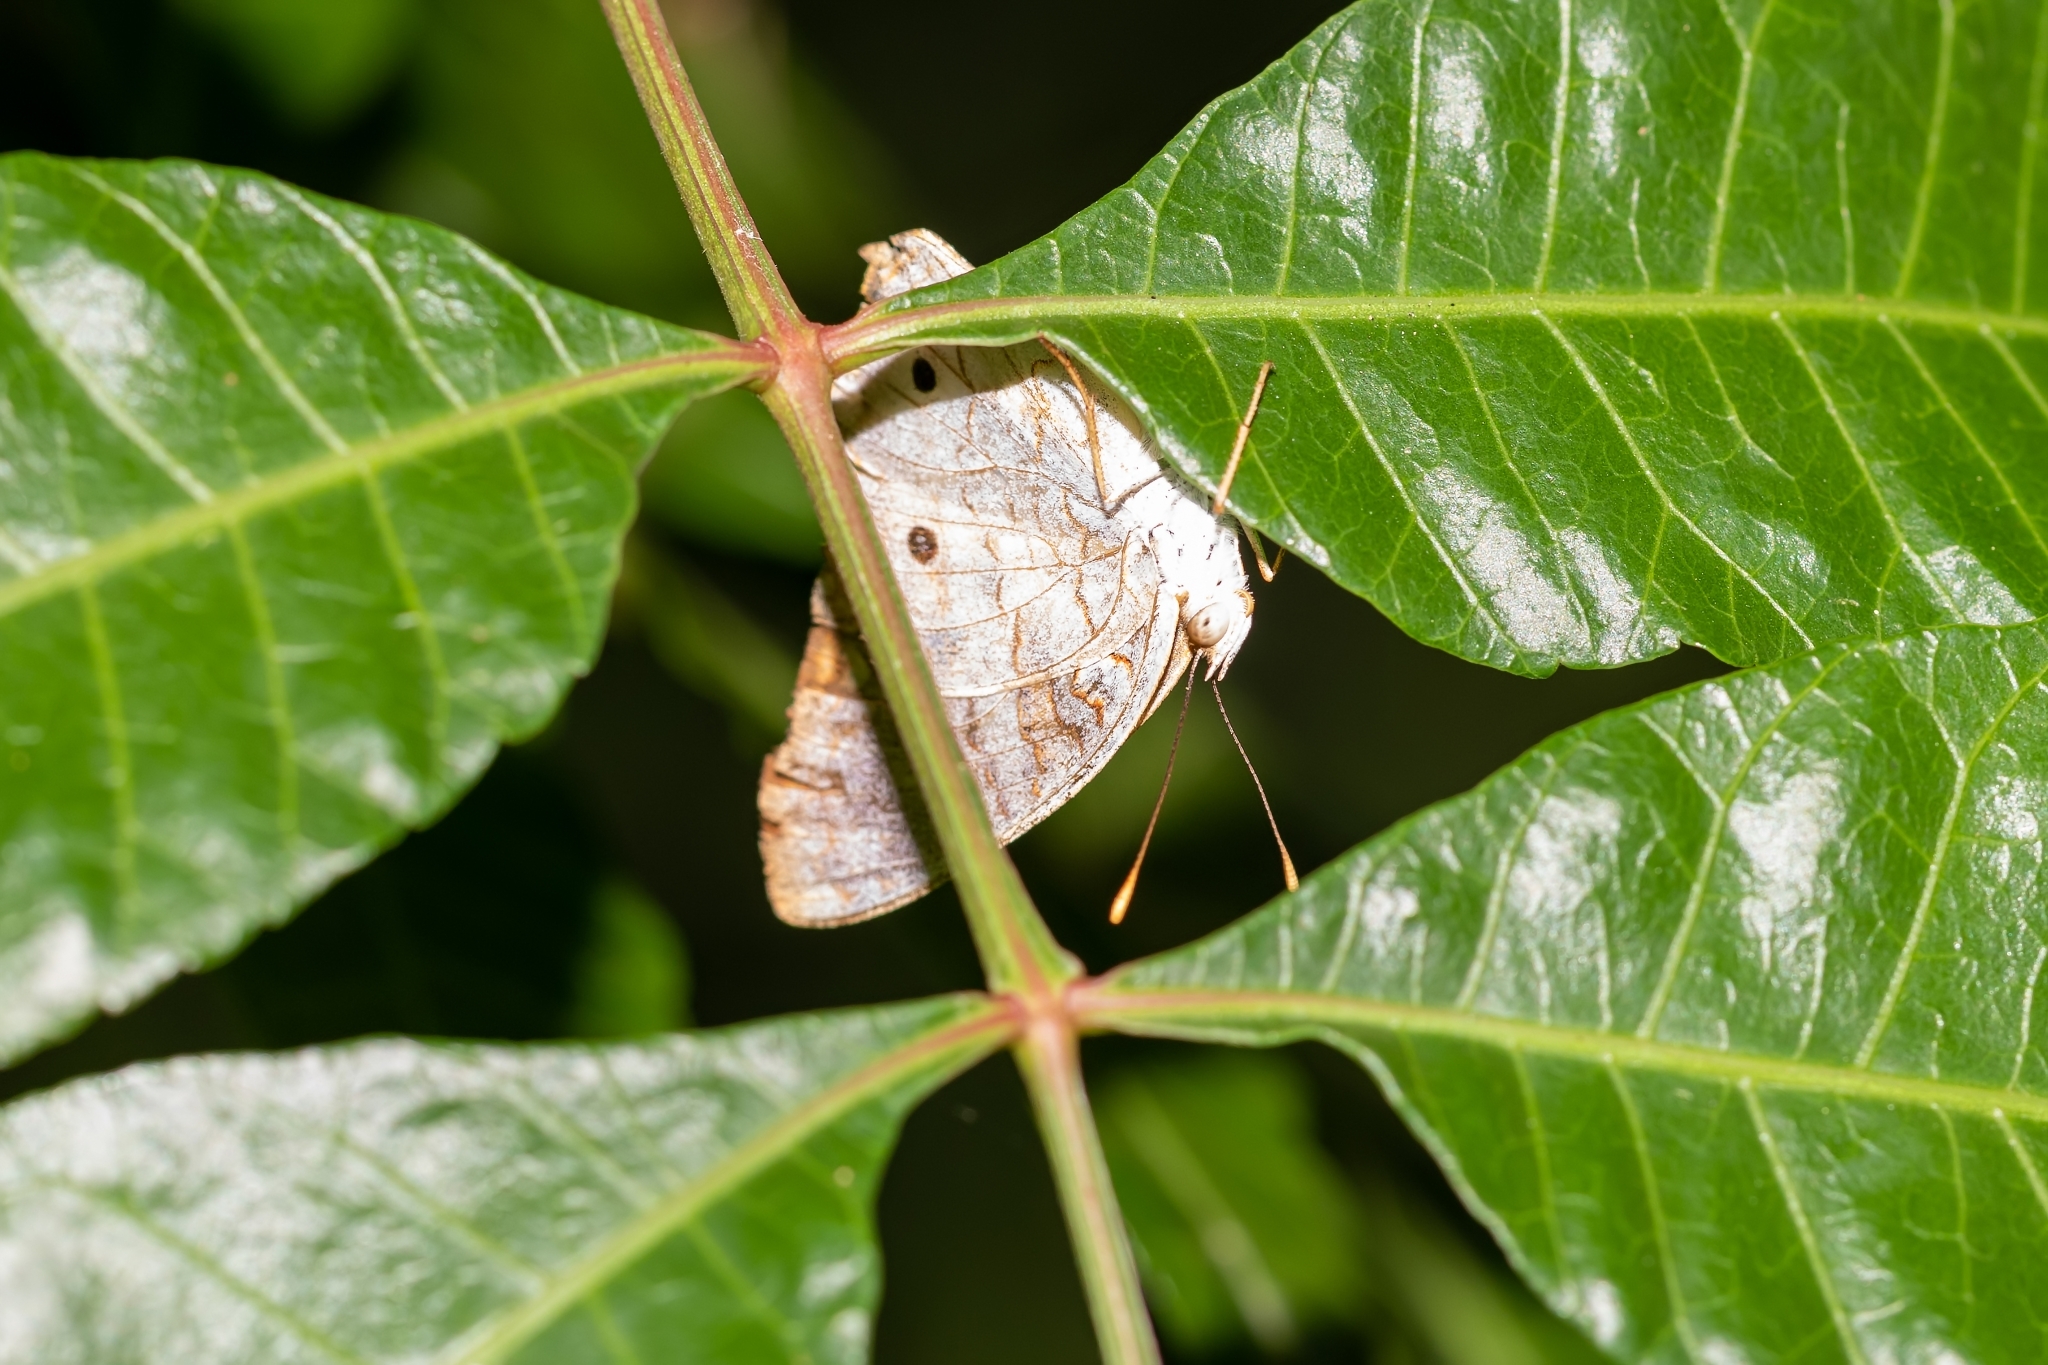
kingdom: Animalia
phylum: Arthropoda
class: Insecta
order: Lepidoptera
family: Nymphalidae
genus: Anartia
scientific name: Anartia jatrophae
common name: White peacock
